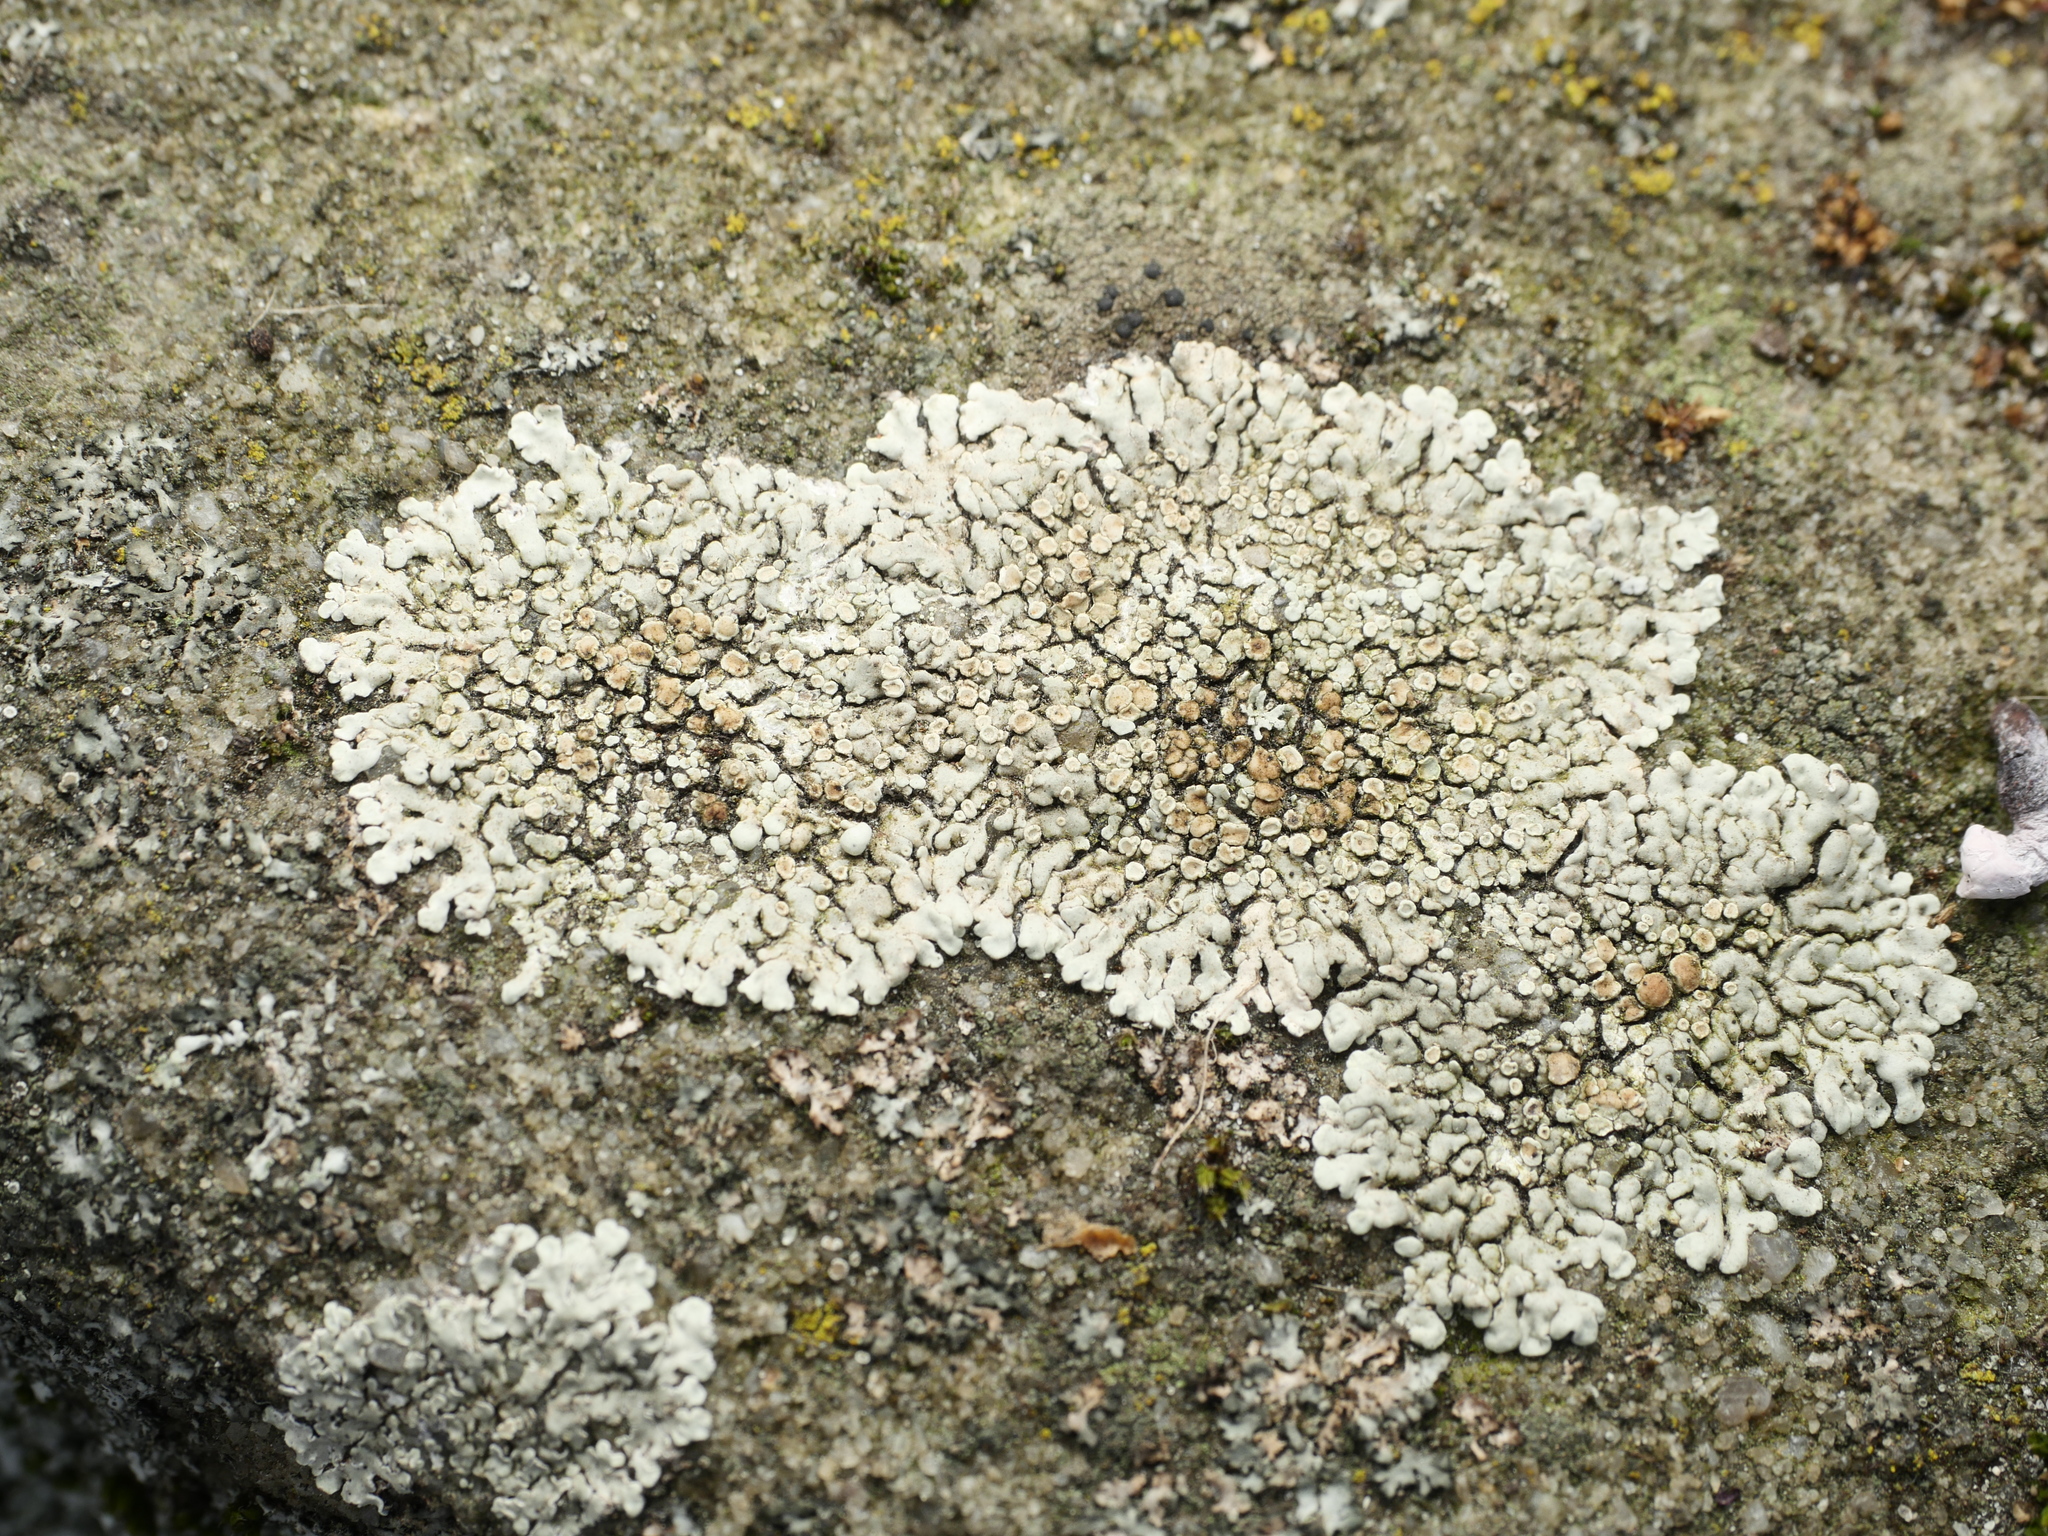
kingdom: Fungi
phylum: Ascomycota
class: Lecanoromycetes
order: Lecanorales
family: Lecanoraceae
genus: Protoparmeliopsis
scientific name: Protoparmeliopsis muralis
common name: Stonewall rim lichen
